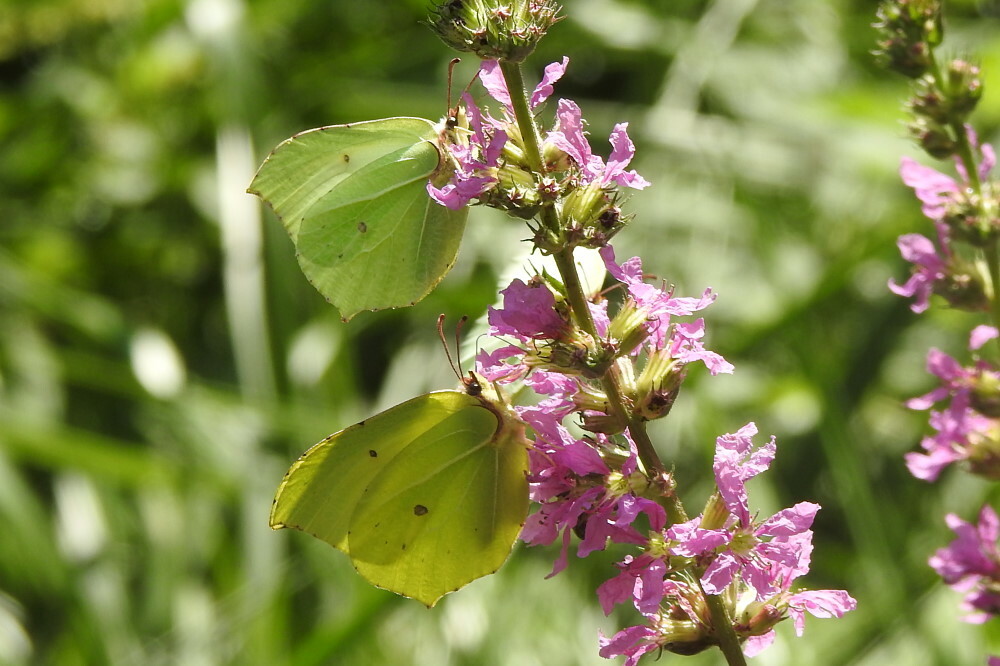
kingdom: Animalia
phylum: Arthropoda
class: Insecta
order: Lepidoptera
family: Pieridae
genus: Gonepteryx
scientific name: Gonepteryx rhamni
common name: Brimstone
